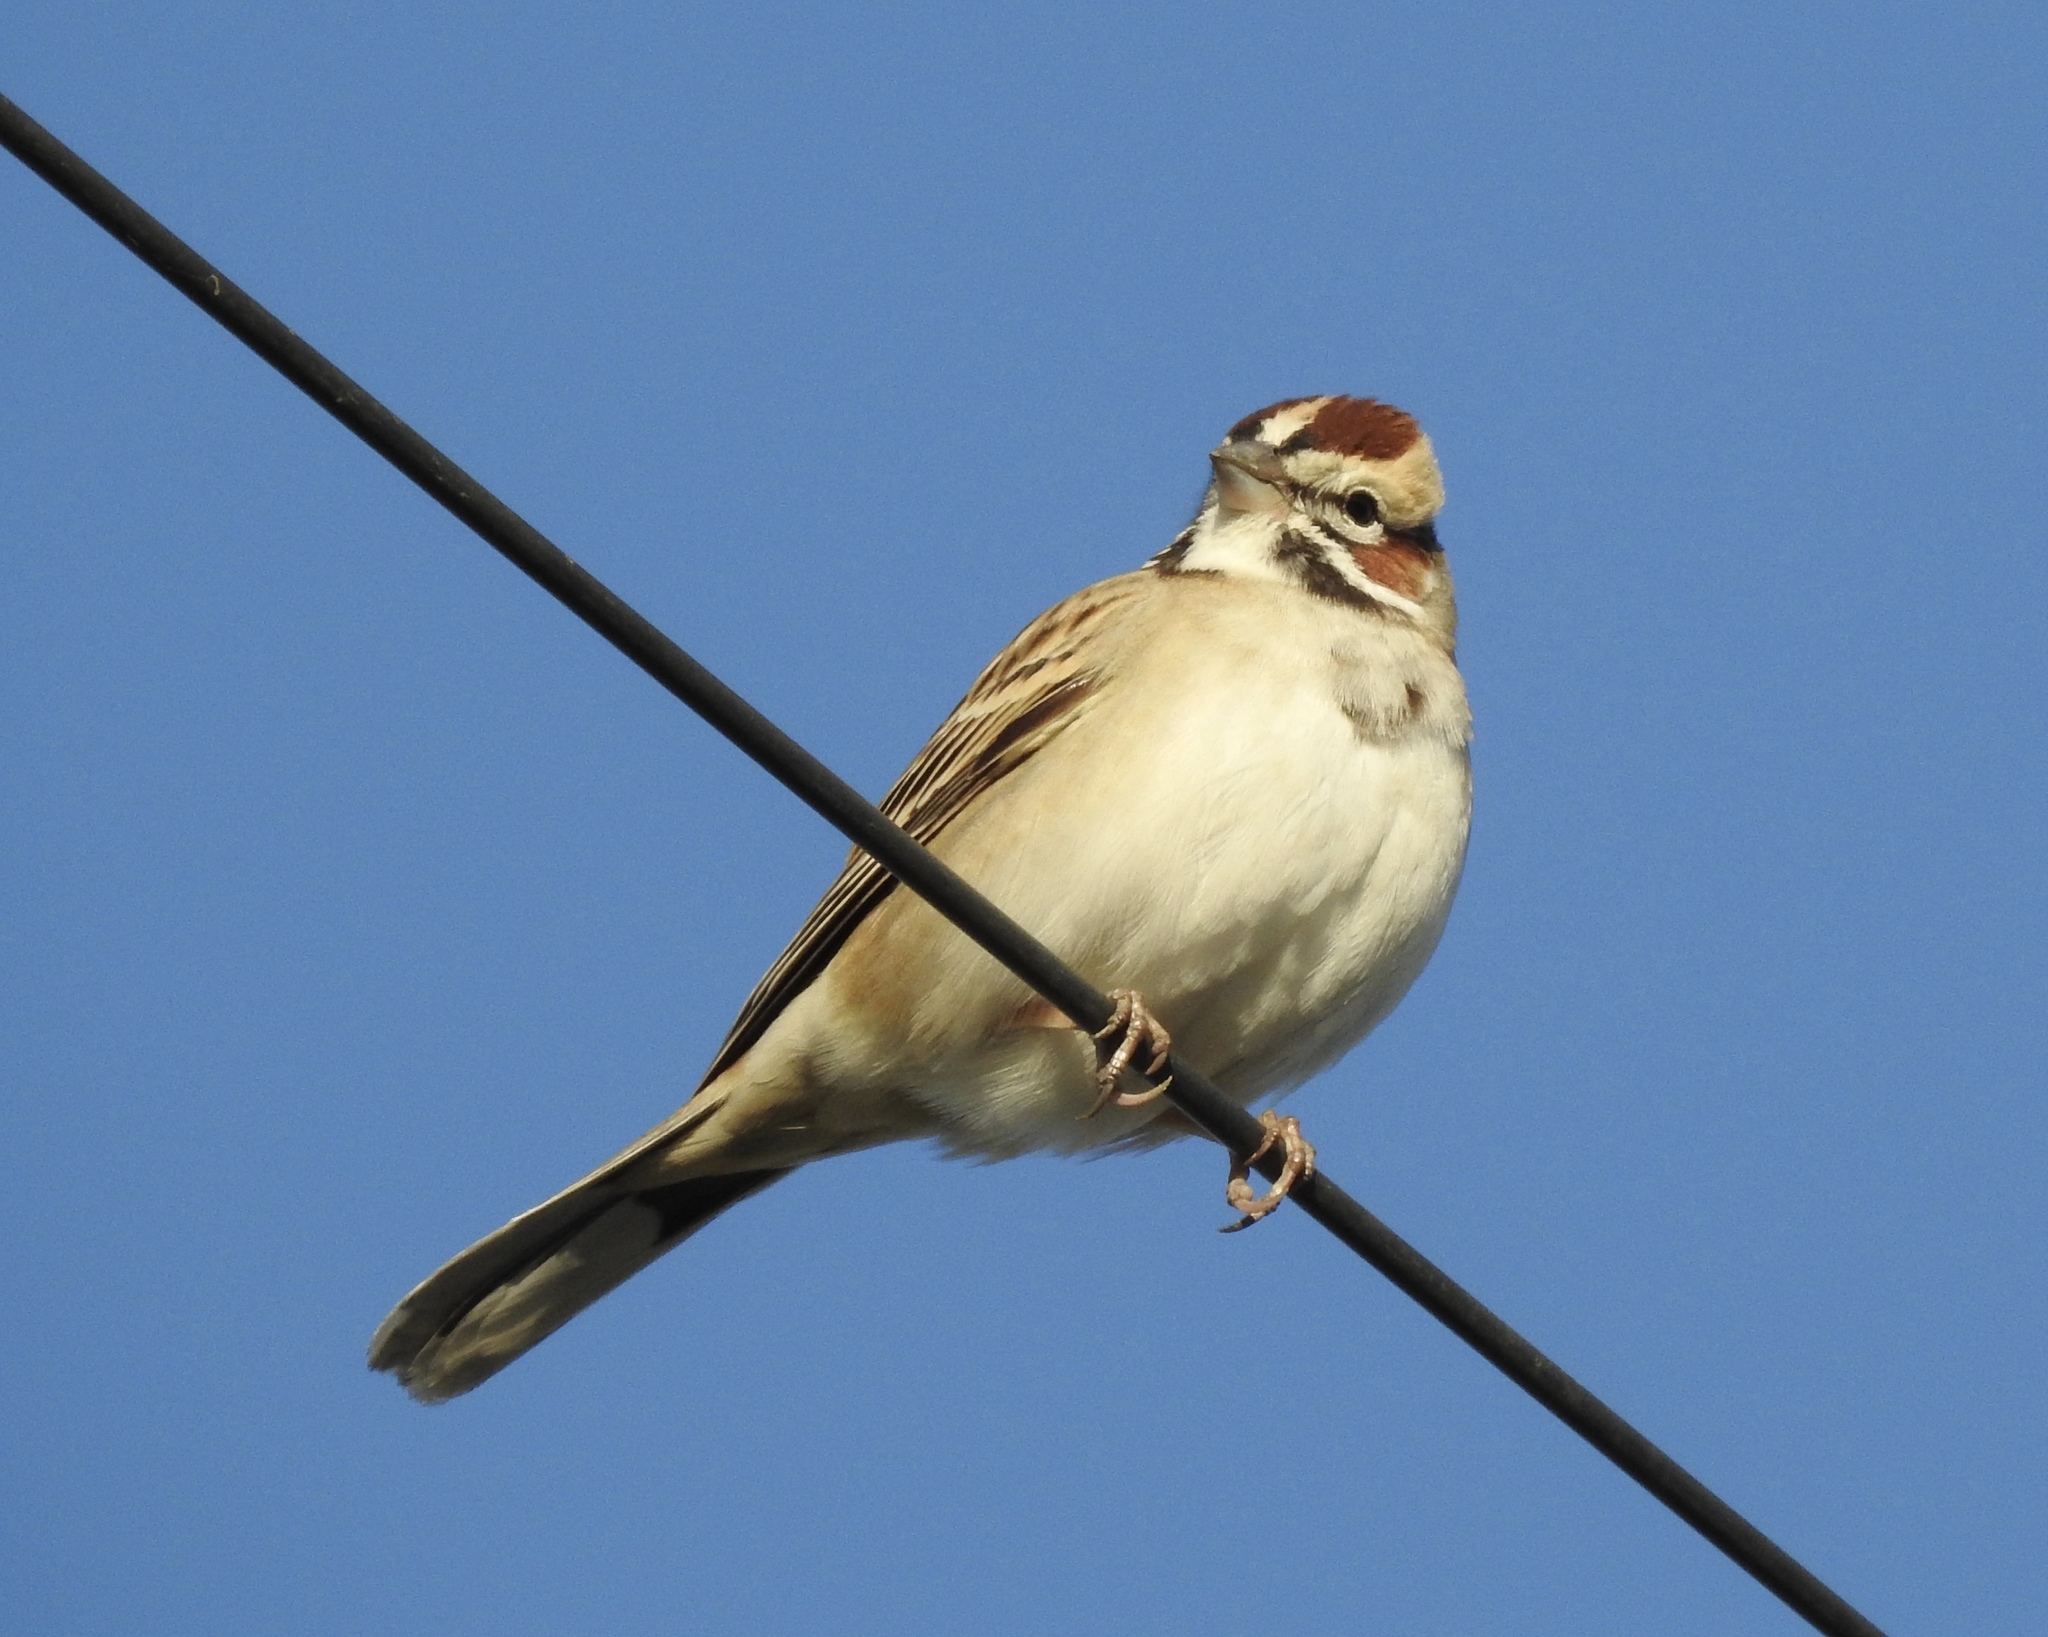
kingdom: Animalia
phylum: Chordata
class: Aves
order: Passeriformes
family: Passerellidae
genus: Chondestes
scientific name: Chondestes grammacus
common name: Lark sparrow
